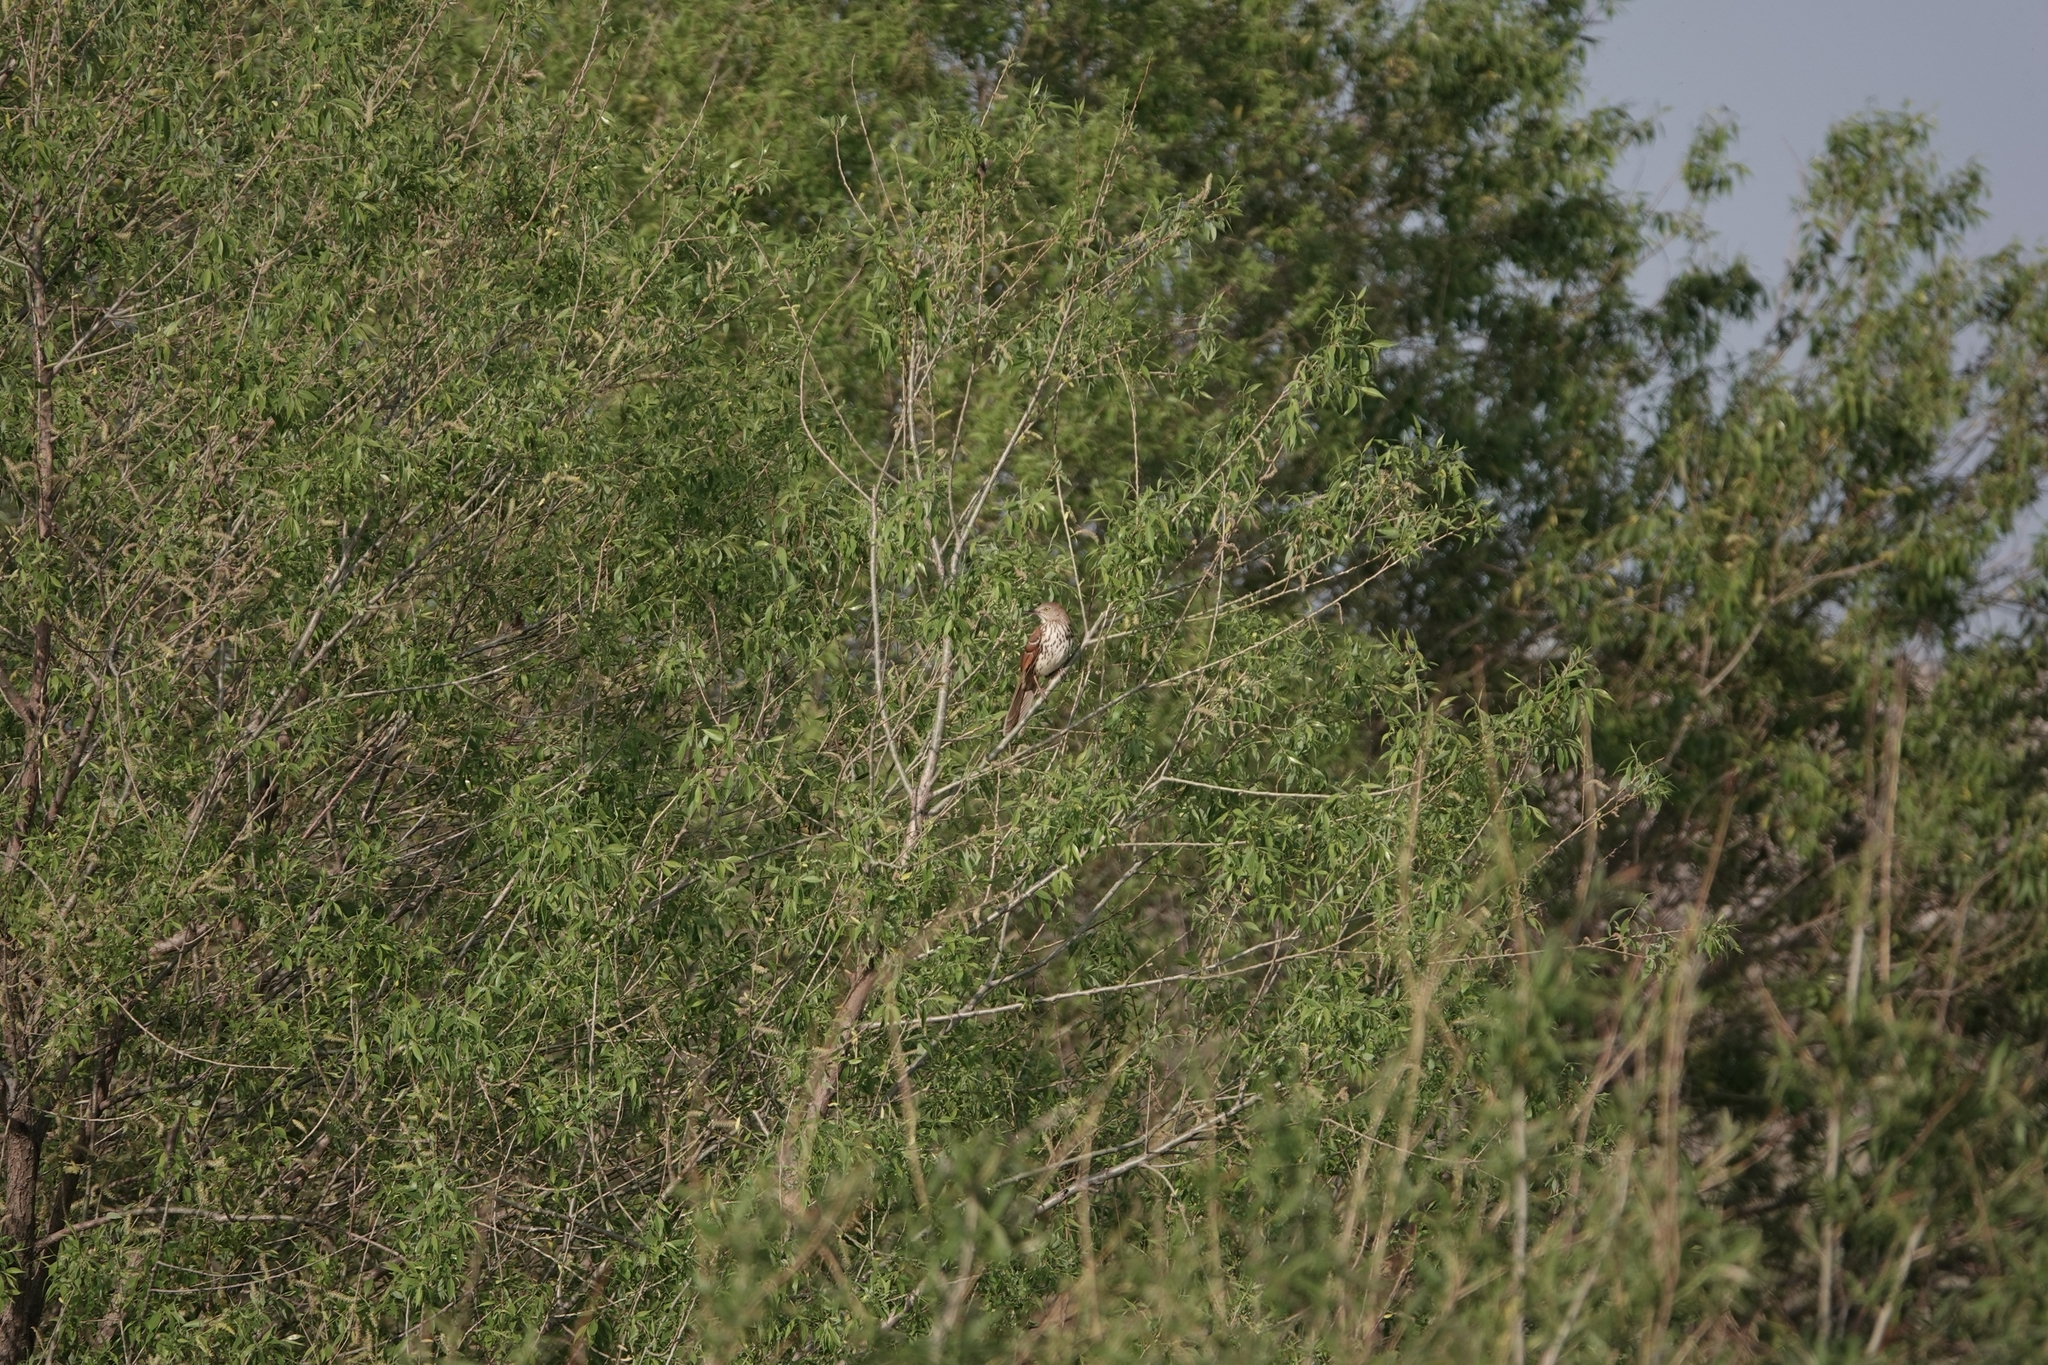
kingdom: Animalia
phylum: Chordata
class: Aves
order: Passeriformes
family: Mimidae
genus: Toxostoma
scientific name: Toxostoma rufum
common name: Brown thrasher
